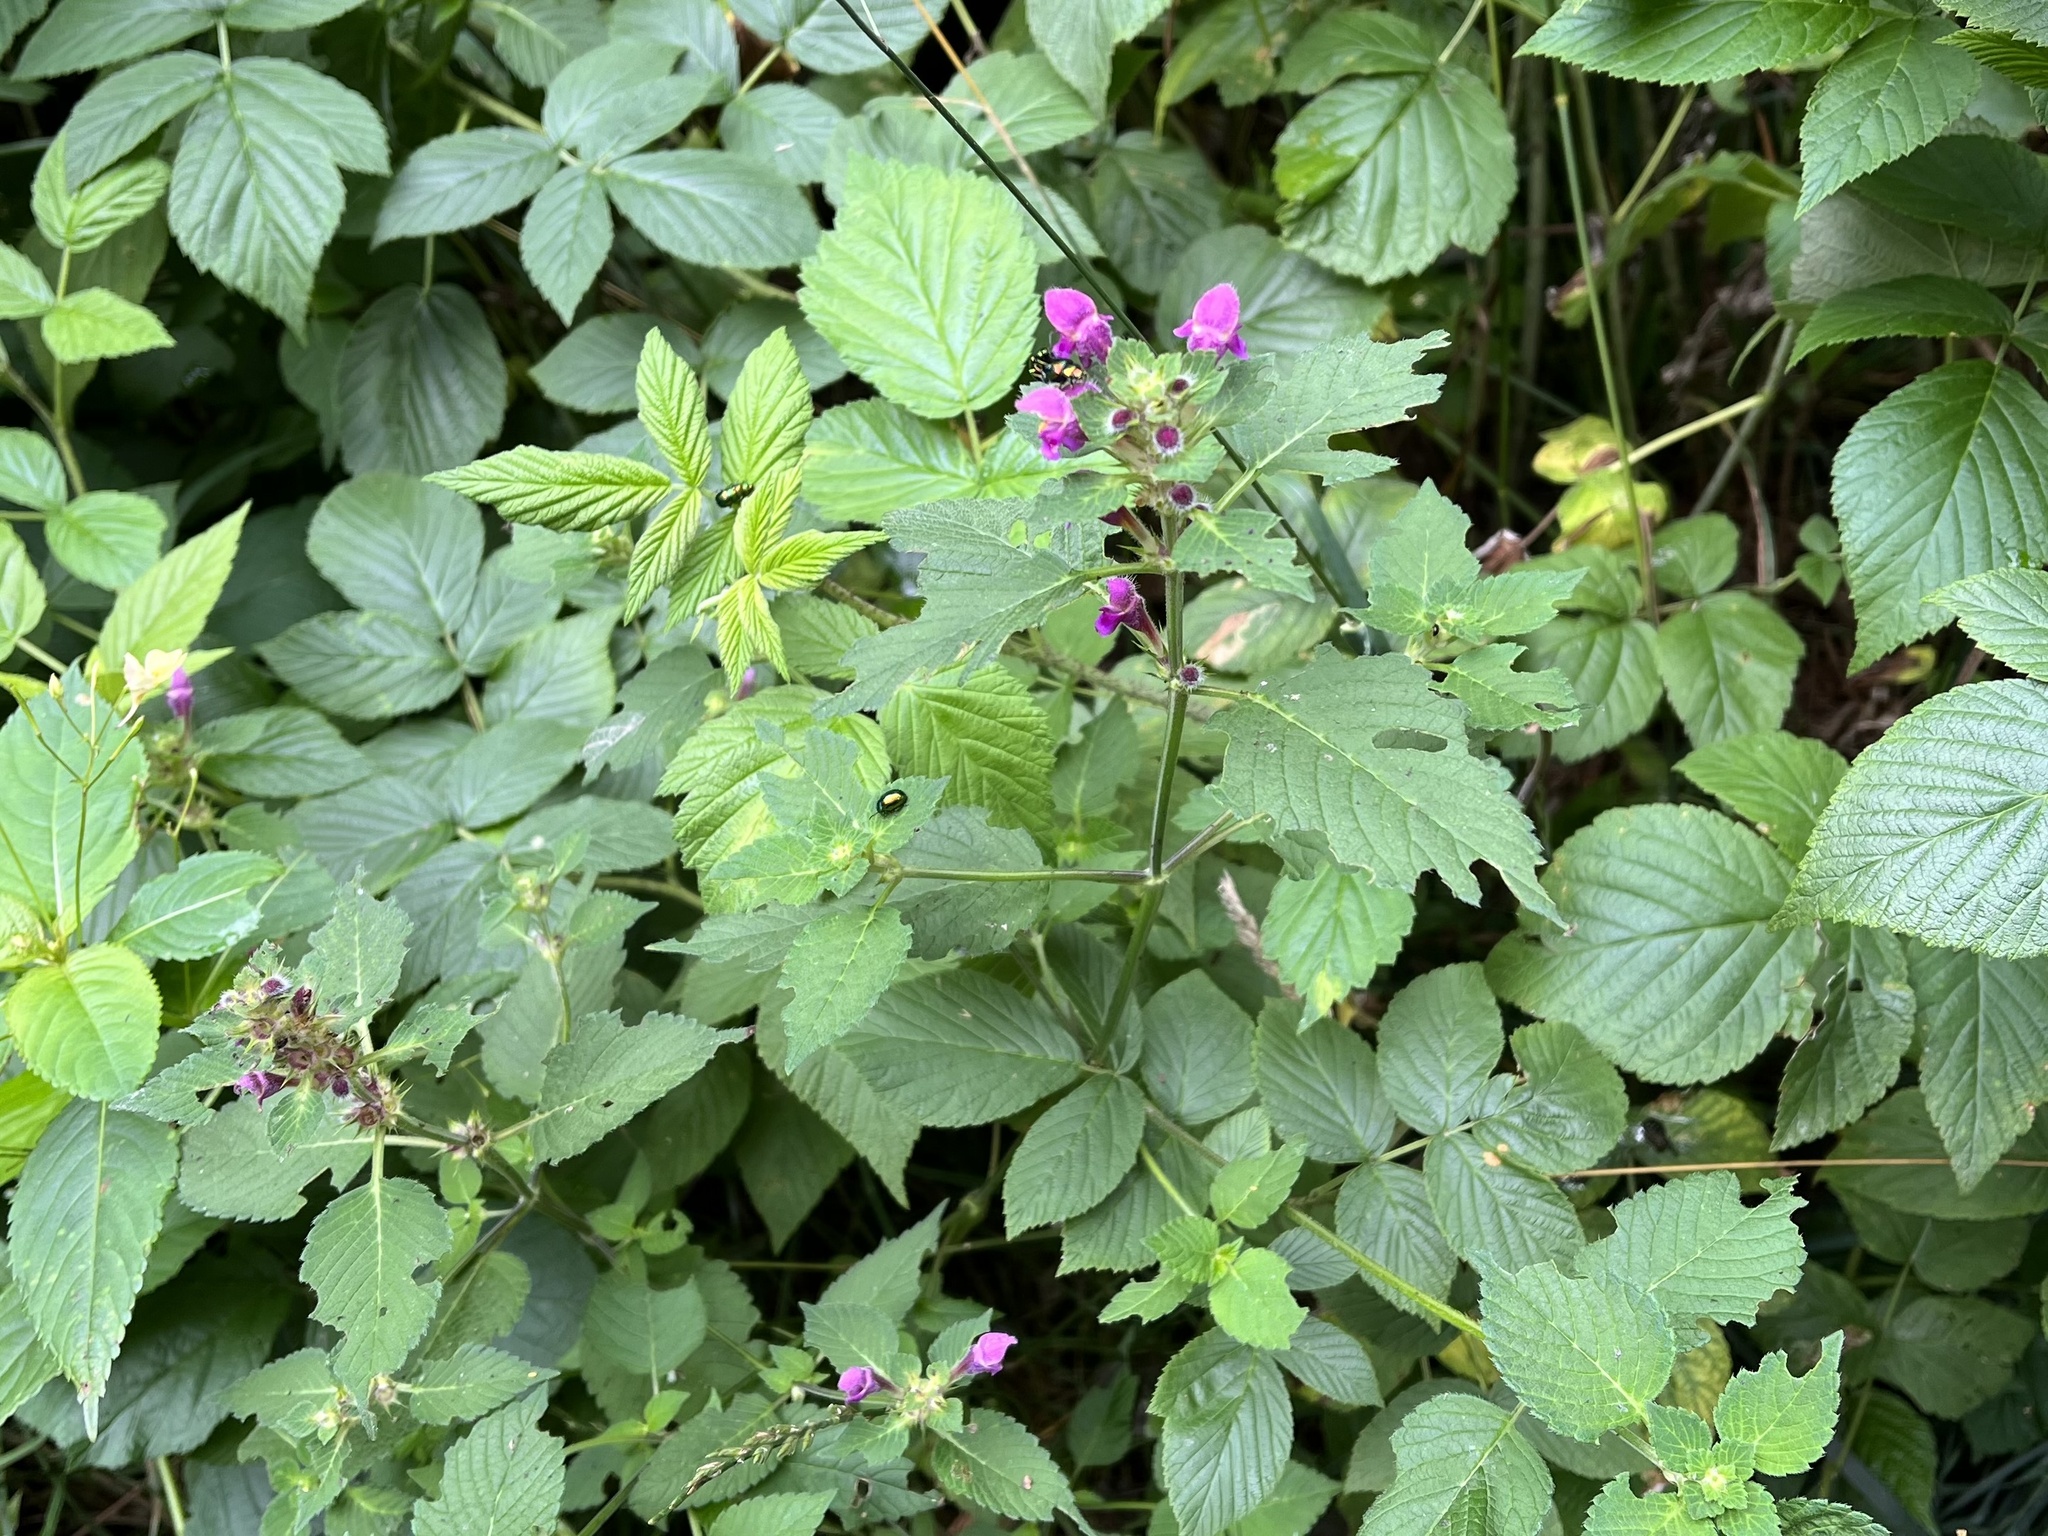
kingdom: Plantae
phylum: Tracheophyta
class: Magnoliopsida
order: Lamiales
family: Lamiaceae
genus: Galeopsis
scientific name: Galeopsis pubescens
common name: Downy hemp-nettle
